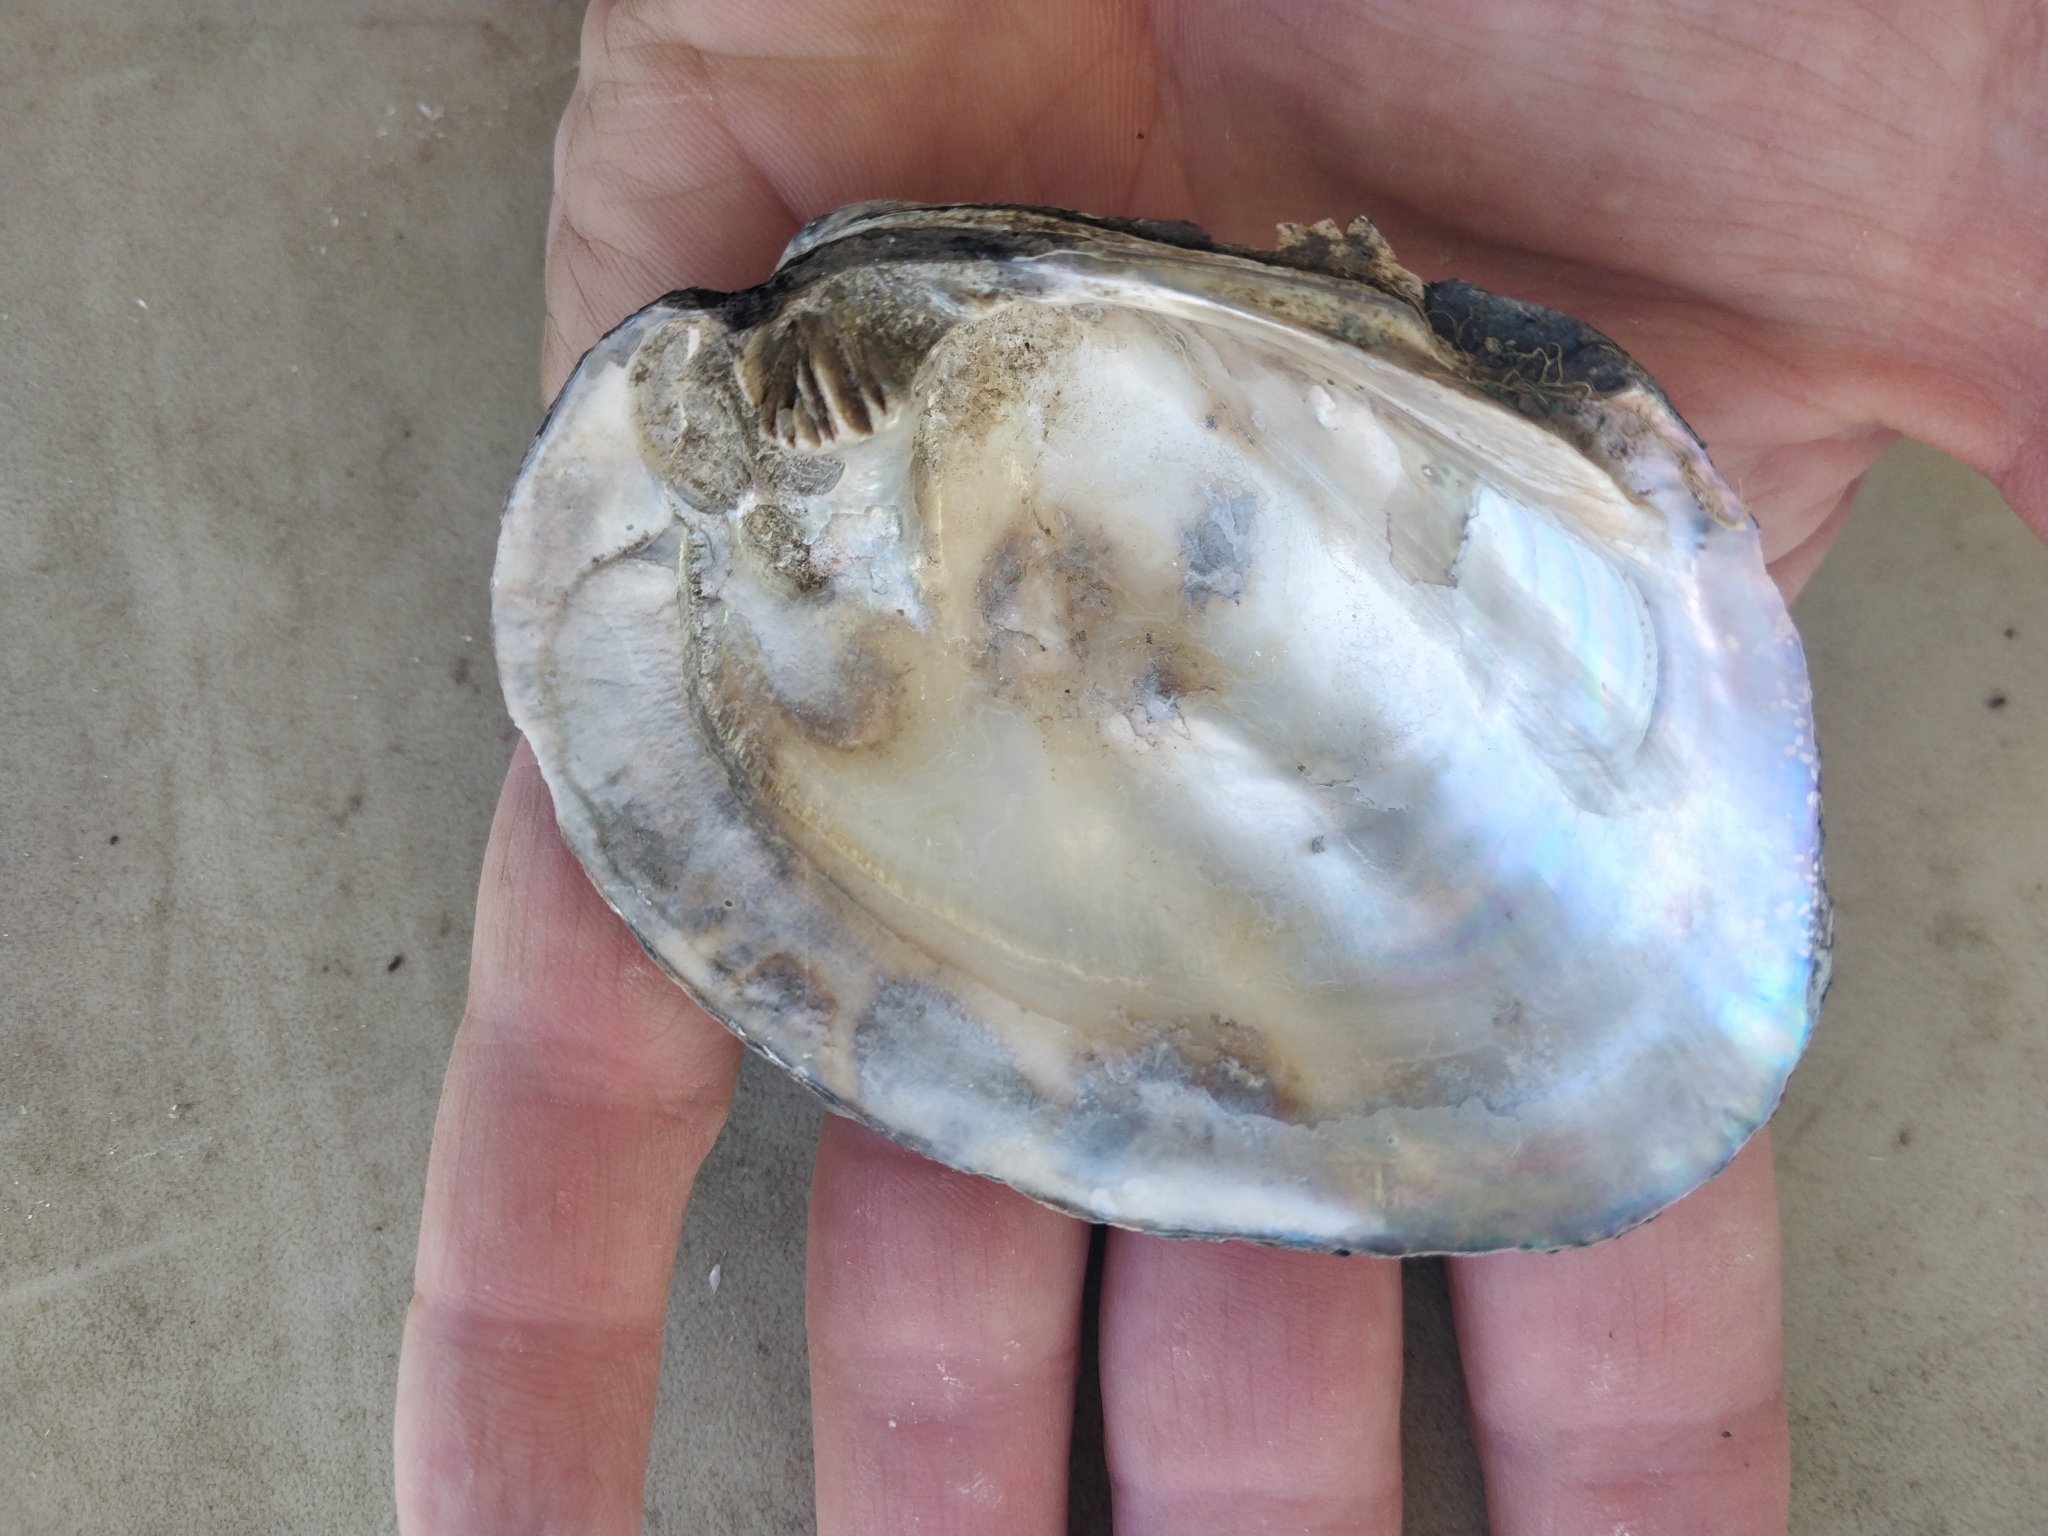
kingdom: Animalia
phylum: Mollusca
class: Bivalvia
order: Unionida
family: Unionidae
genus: Amblema
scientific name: Amblema plicata
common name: Threeridge
